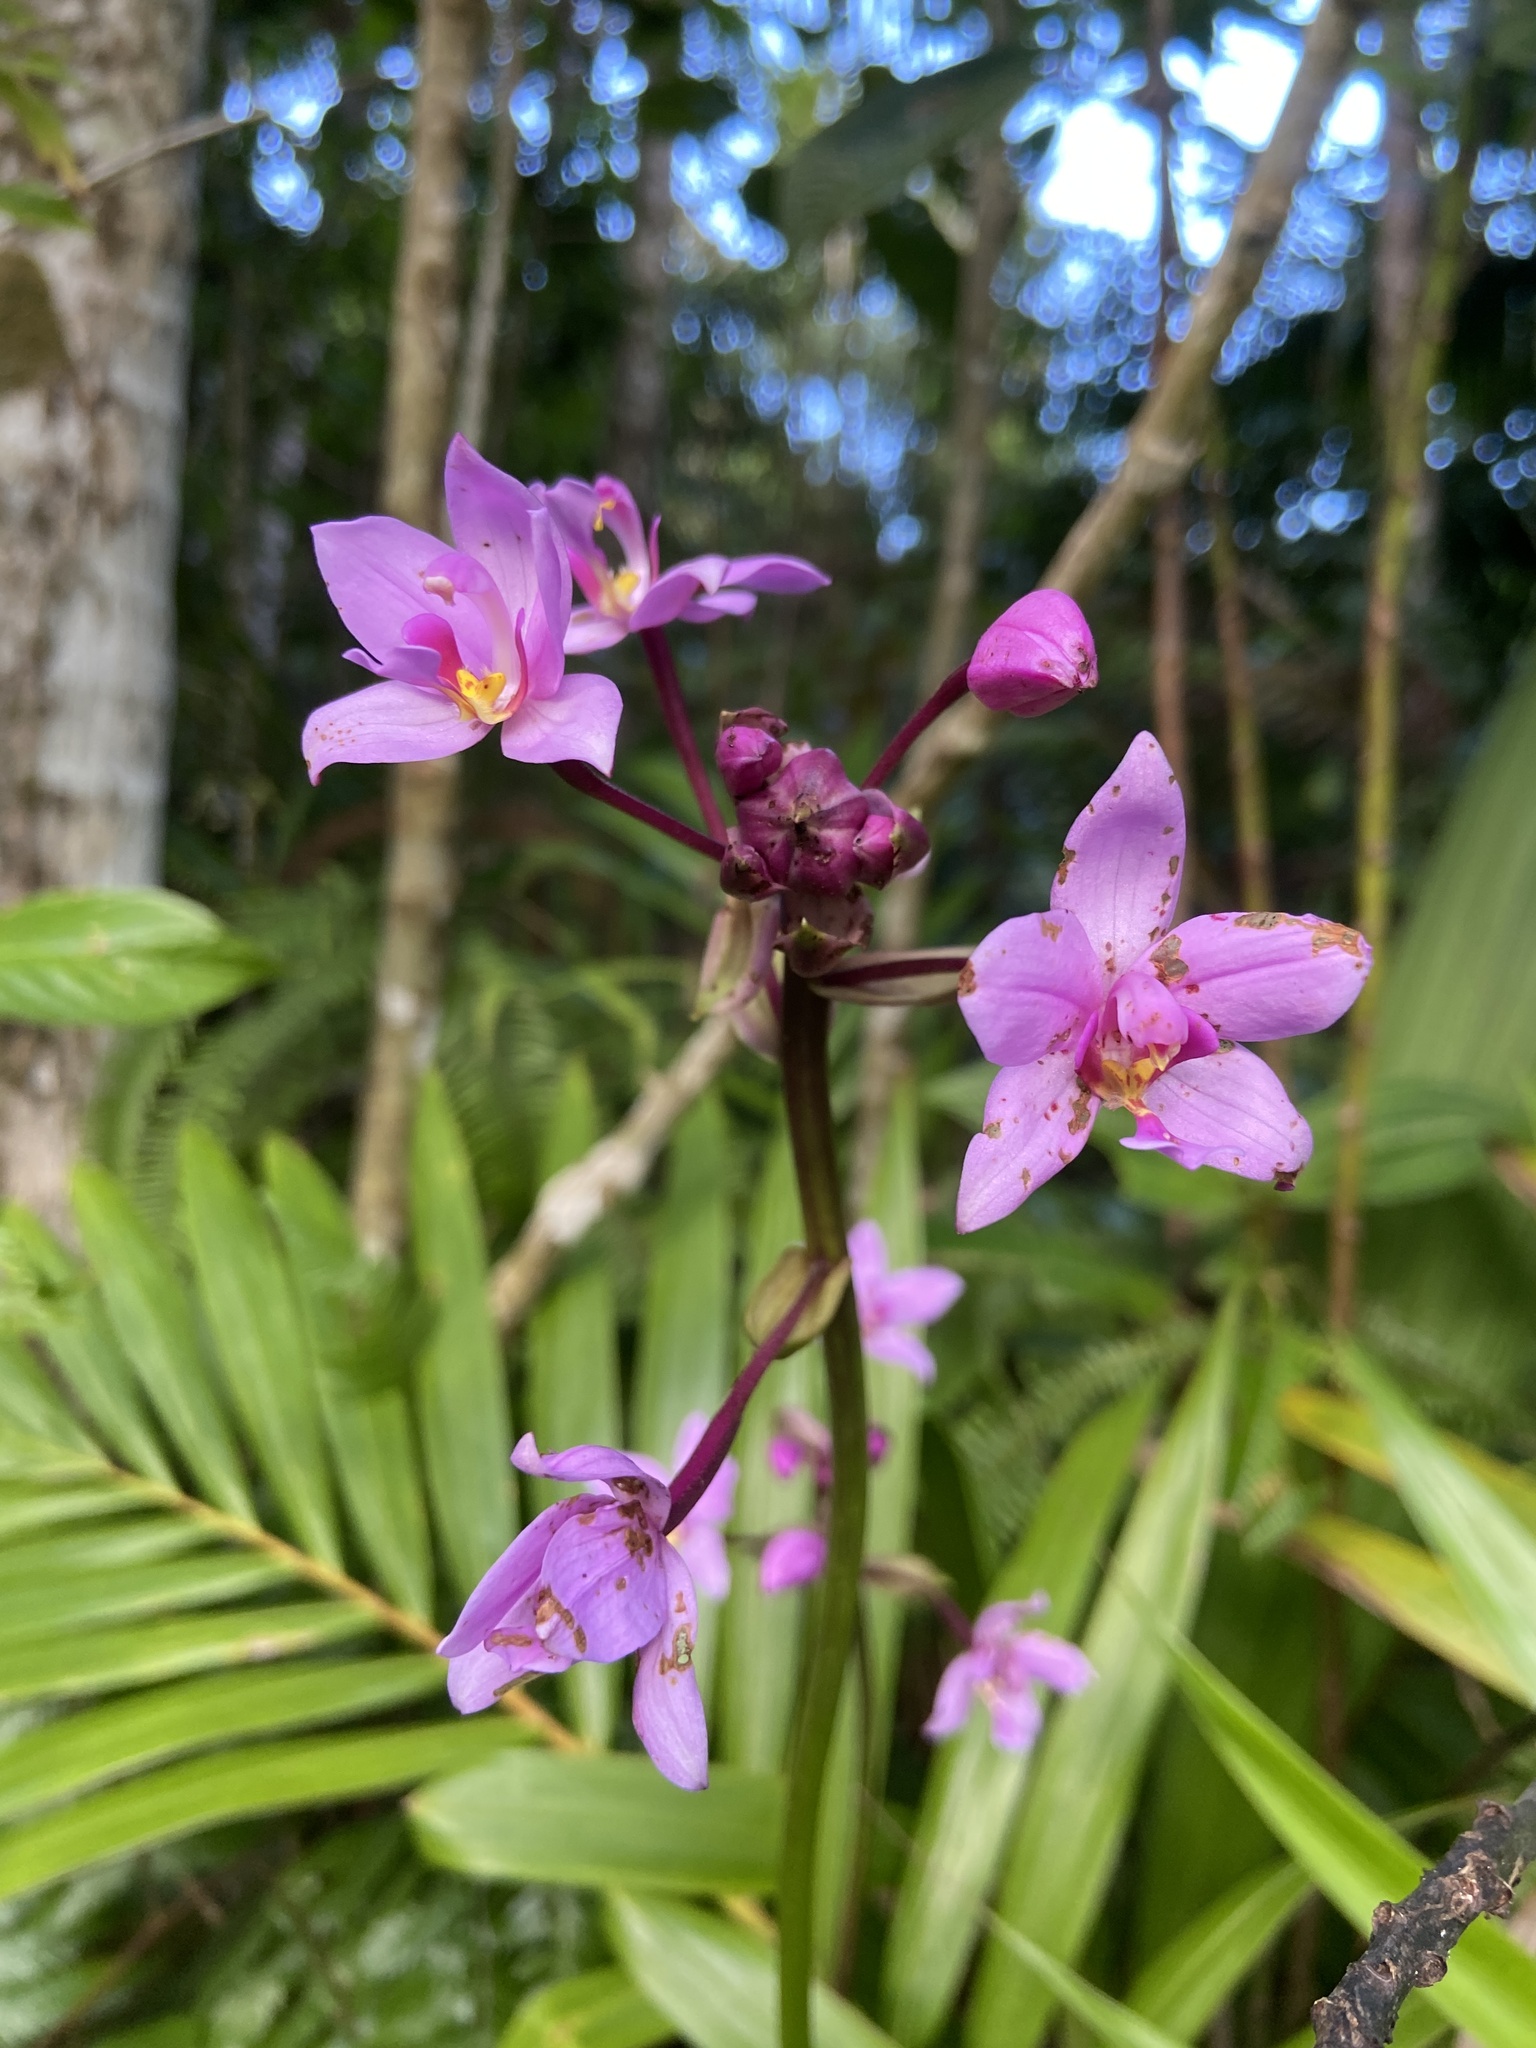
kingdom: Plantae
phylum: Tracheophyta
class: Liliopsida
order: Asparagales
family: Orchidaceae
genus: Spathoglottis
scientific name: Spathoglottis plicata
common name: Philippine ground orchid
